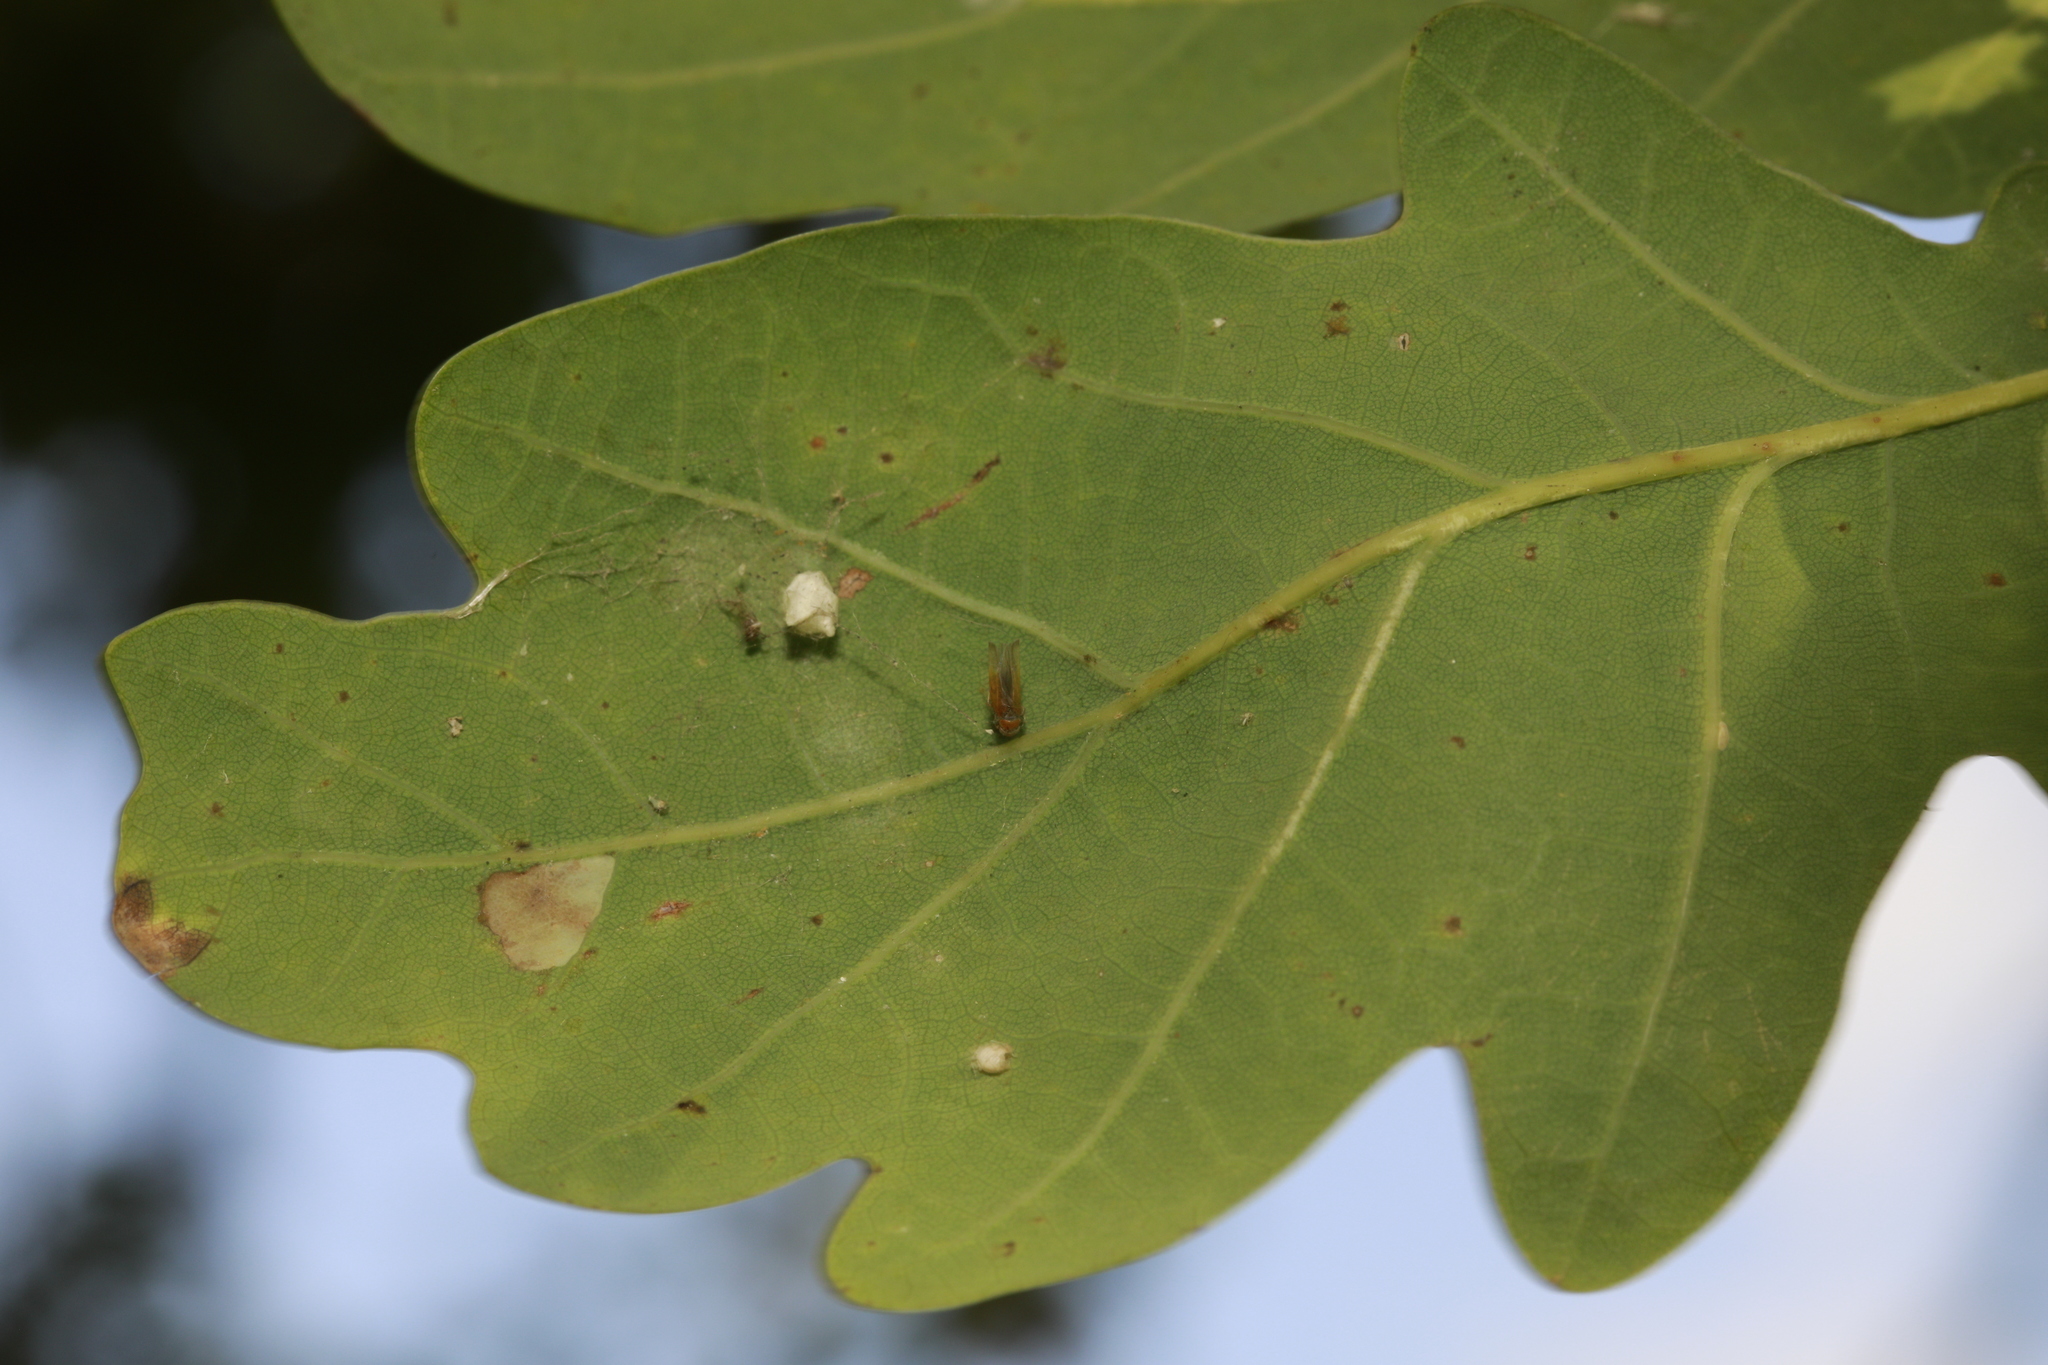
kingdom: Animalia
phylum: Arthropoda
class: Arachnida
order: Araneae
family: Theridiidae
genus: Paidiscura
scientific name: Paidiscura pallens
